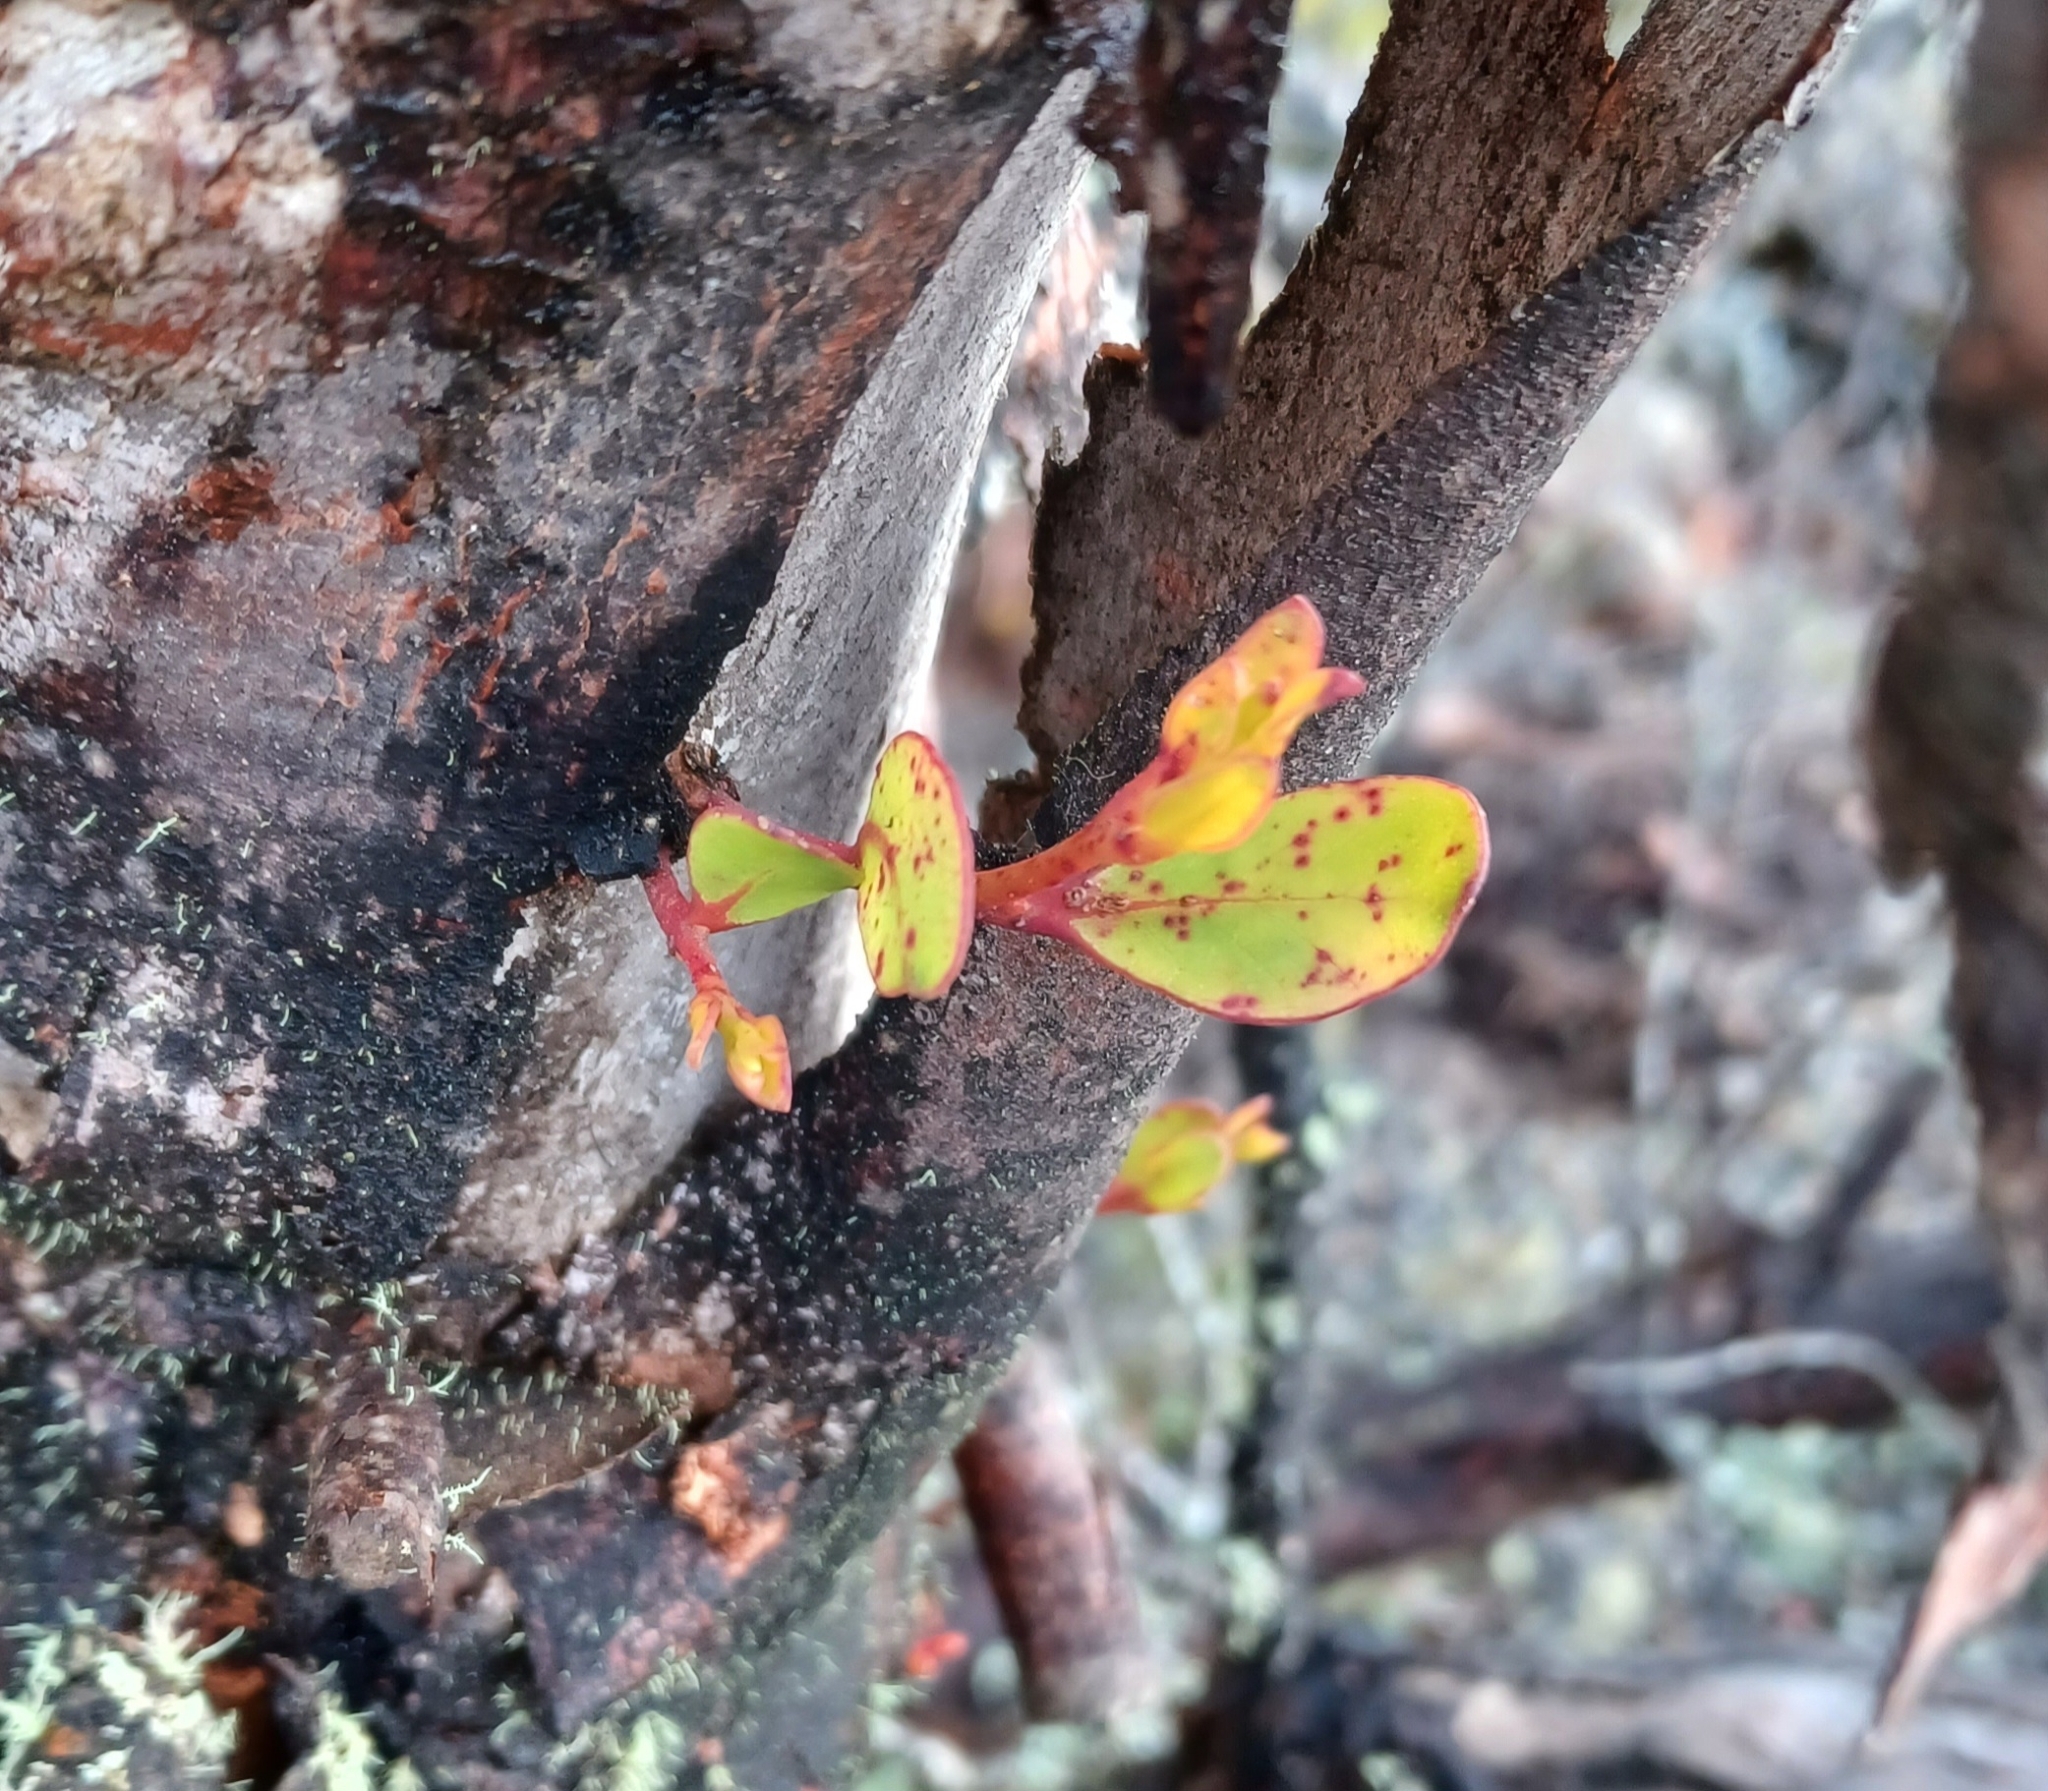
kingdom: Plantae
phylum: Tracheophyta
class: Magnoliopsida
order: Myrtales
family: Myrtaceae
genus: Eucalyptus
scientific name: Eucalyptus serraensis
